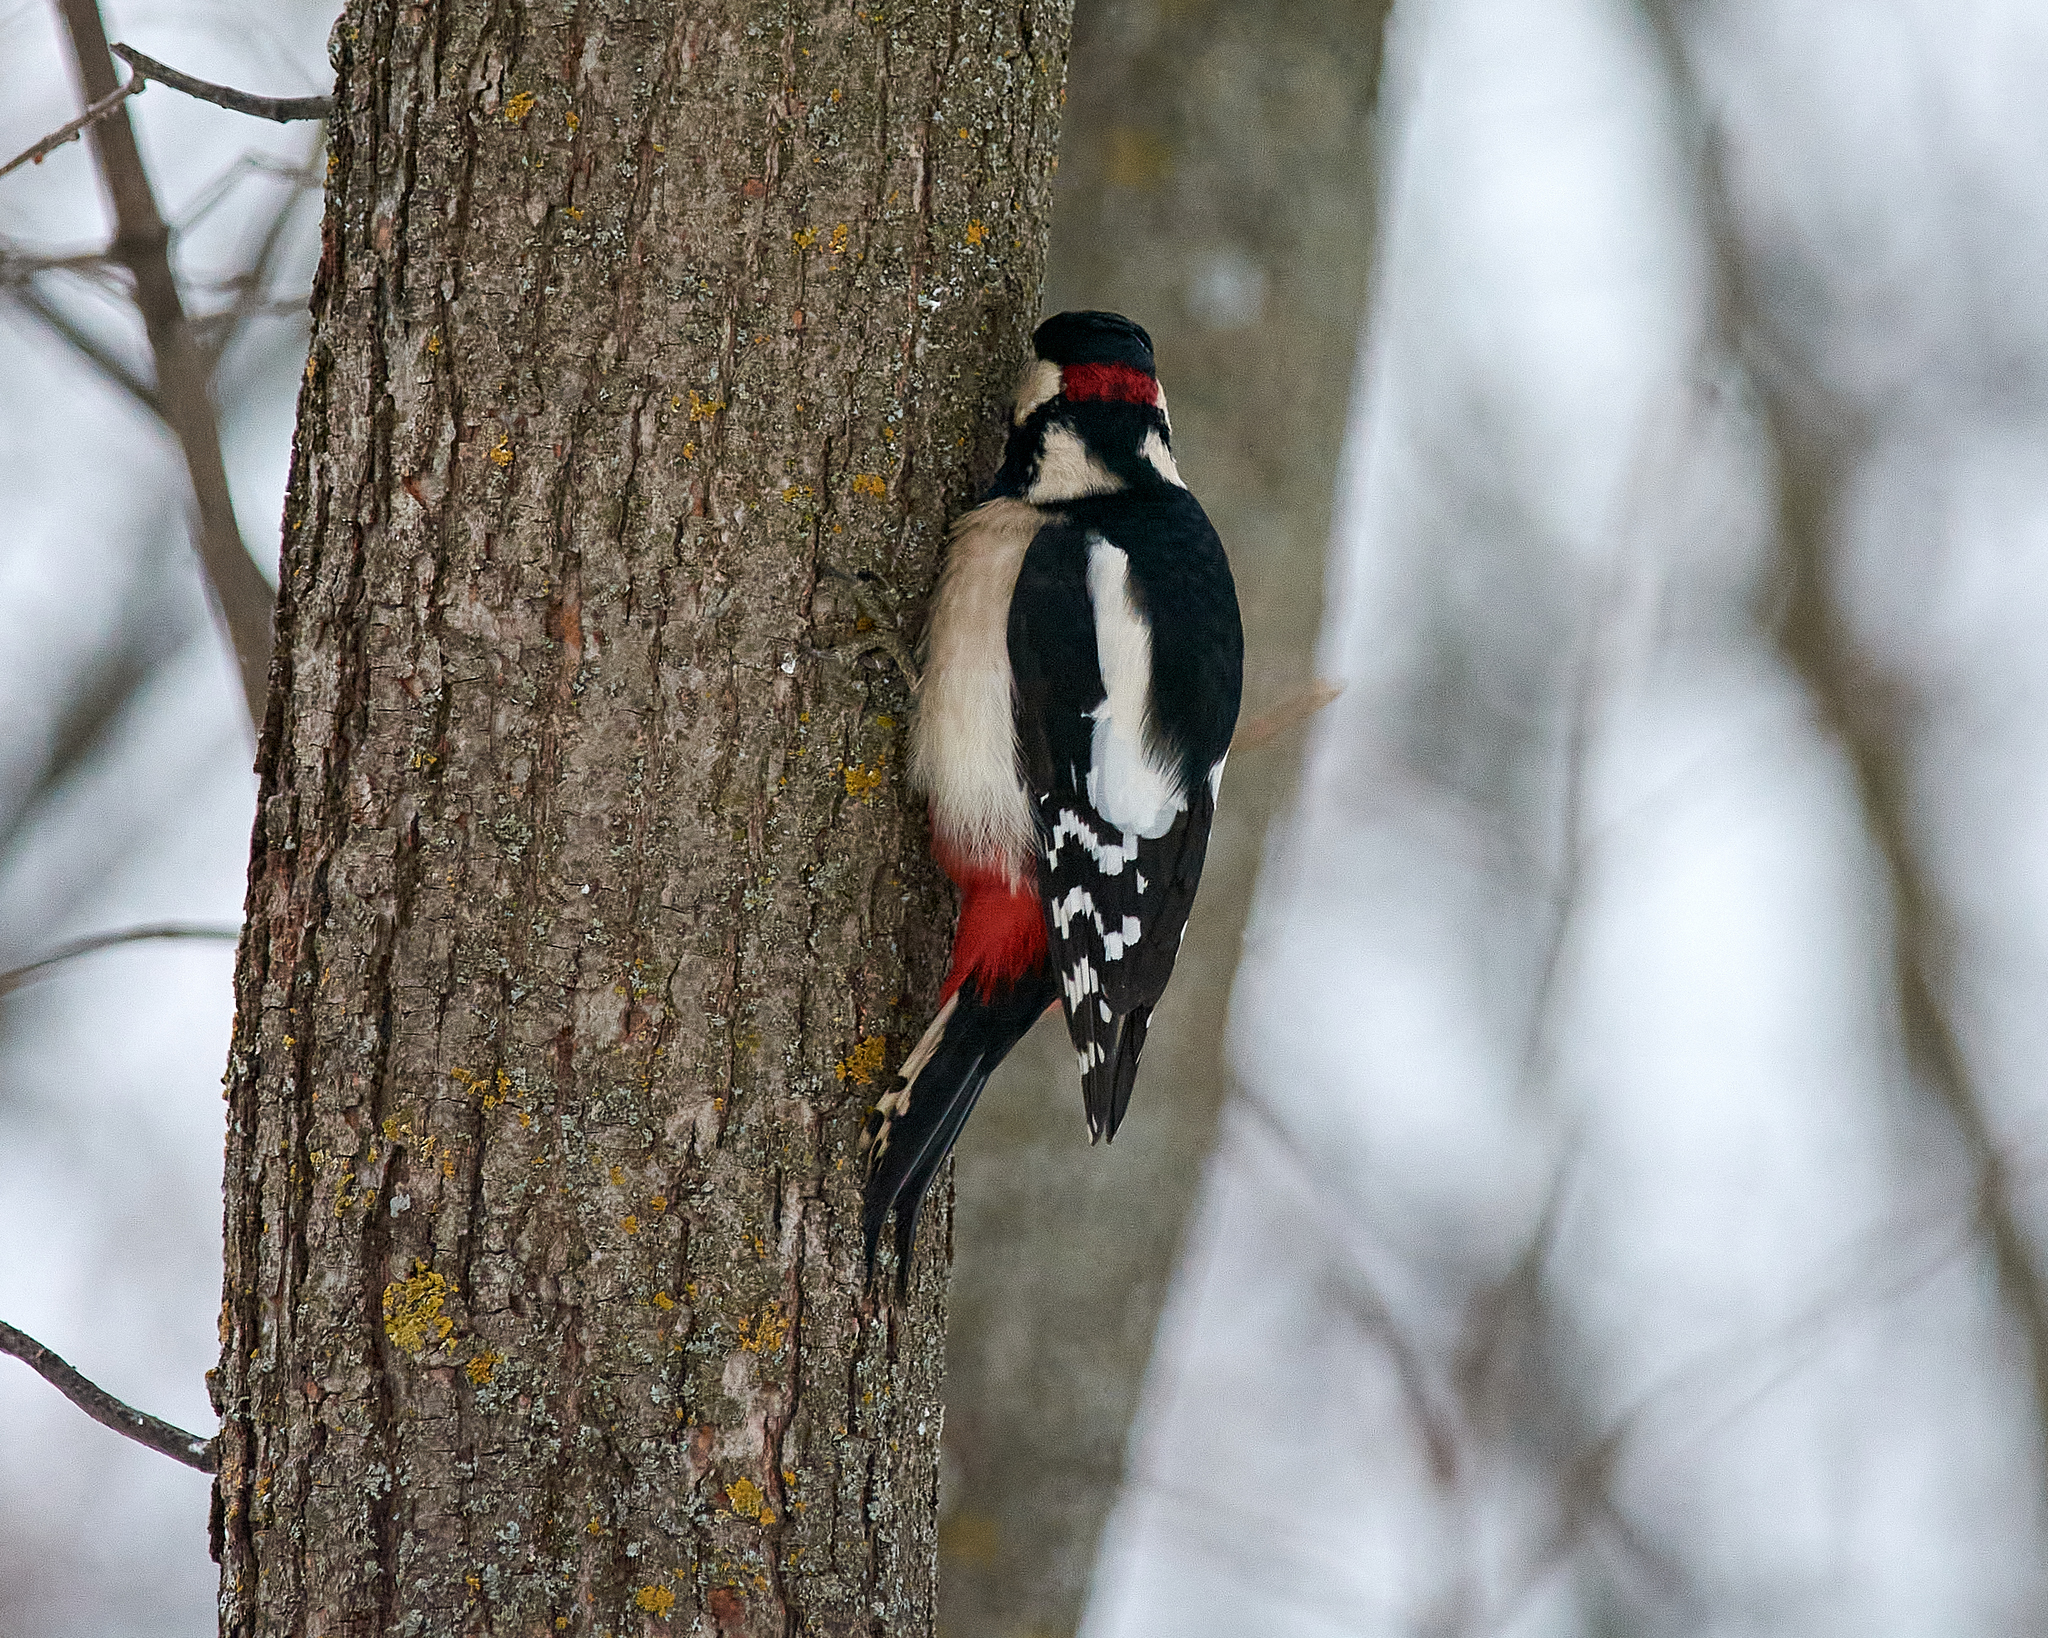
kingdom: Animalia
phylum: Chordata
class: Aves
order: Piciformes
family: Picidae
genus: Dendrocopos
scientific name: Dendrocopos major
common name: Great spotted woodpecker
